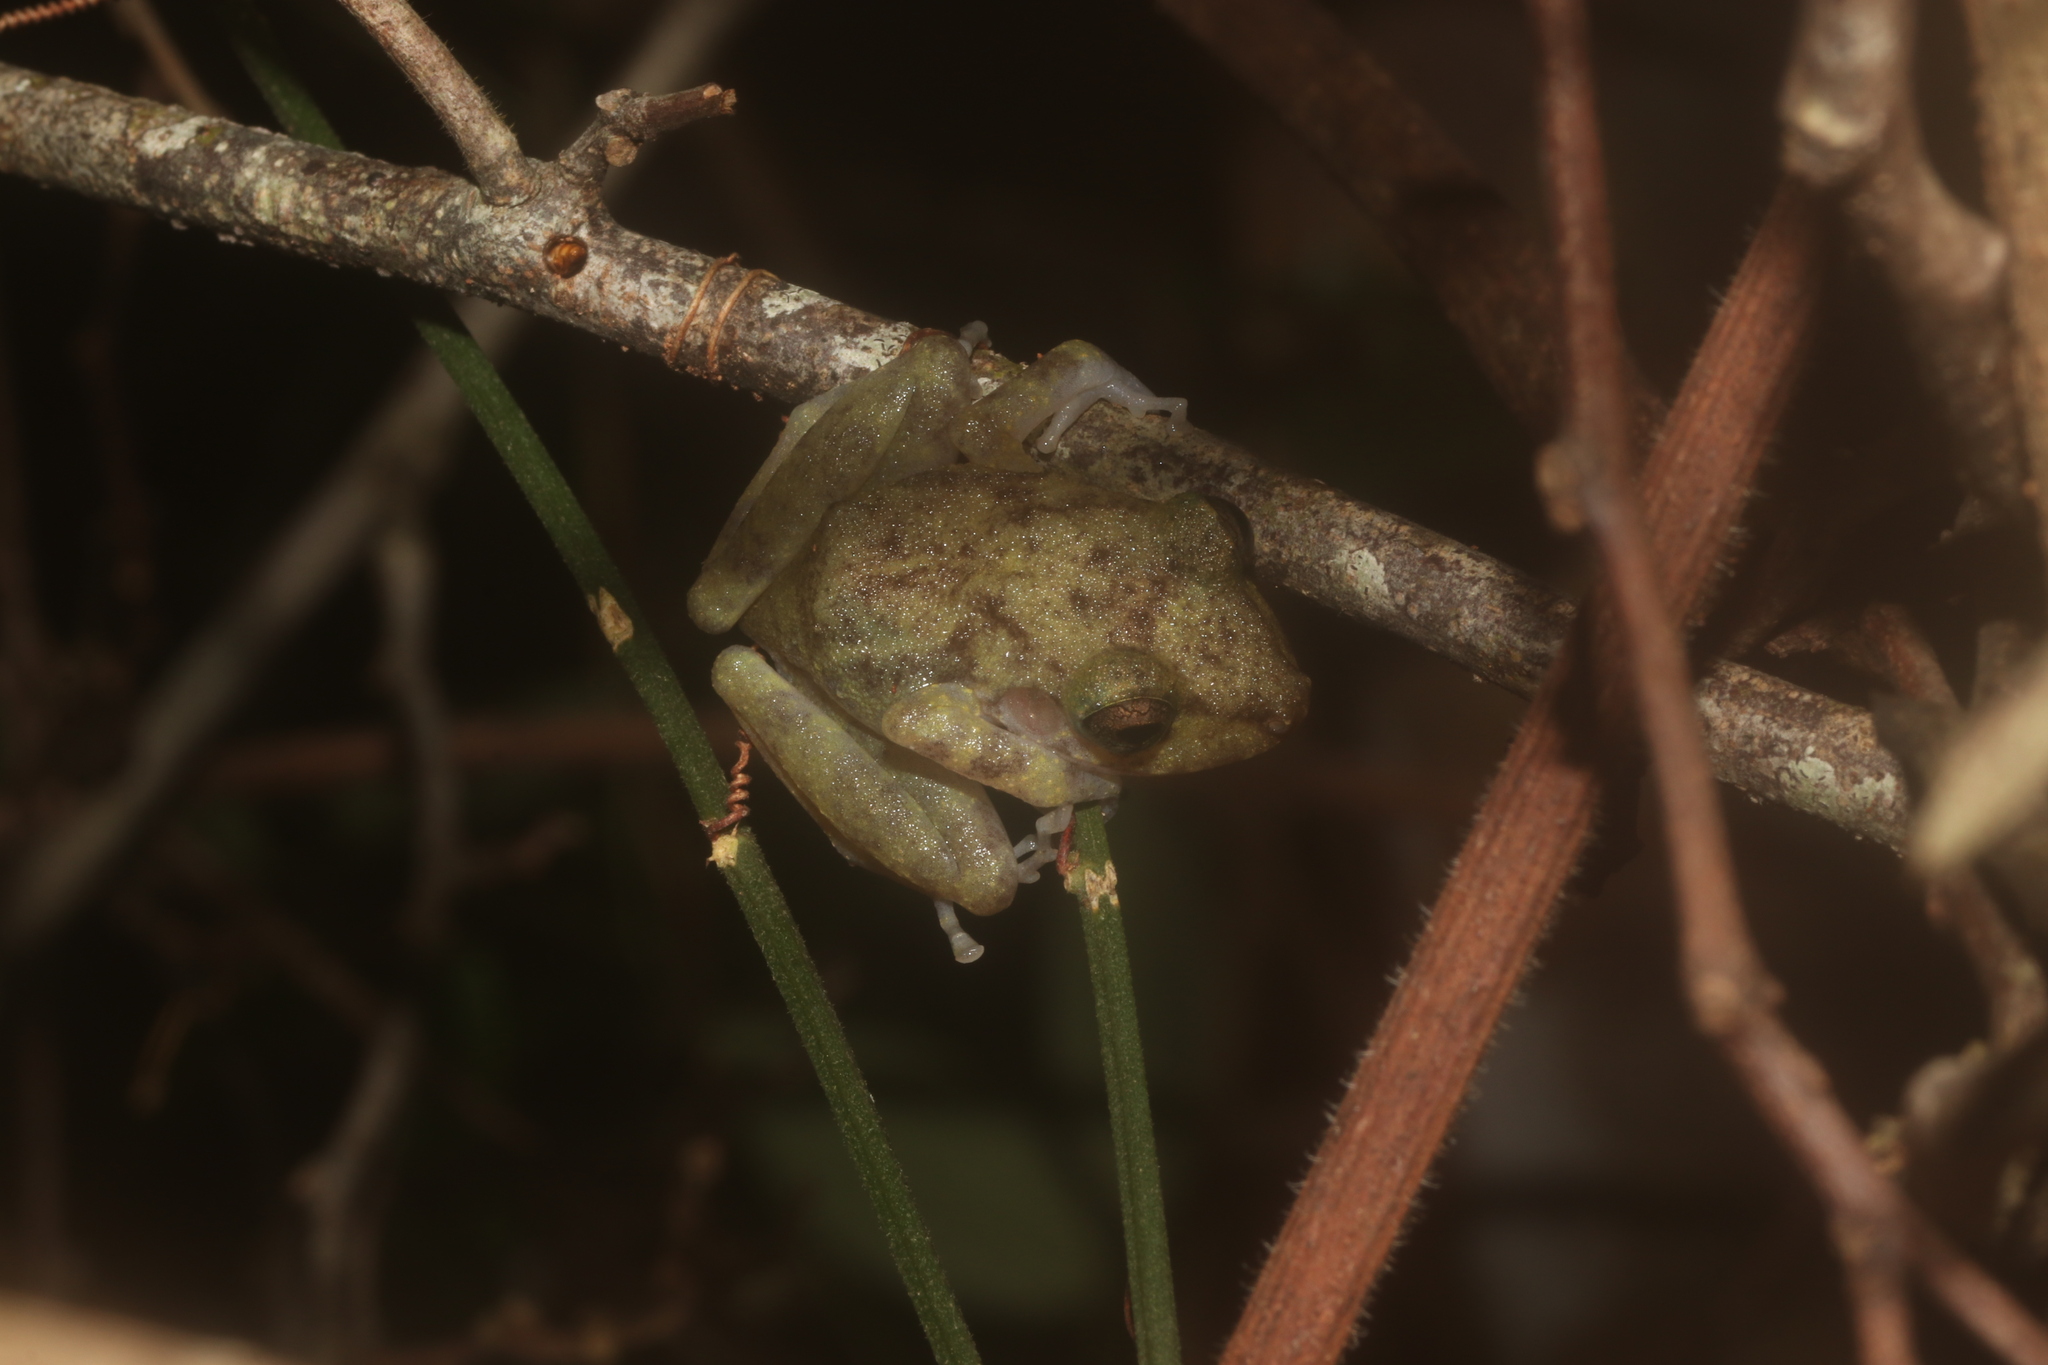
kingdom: Animalia
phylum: Chordata
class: Amphibia
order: Anura
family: Craugastoridae
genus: Craugastor
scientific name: Craugastor yucatanensis
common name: Yucatan rainfrog
